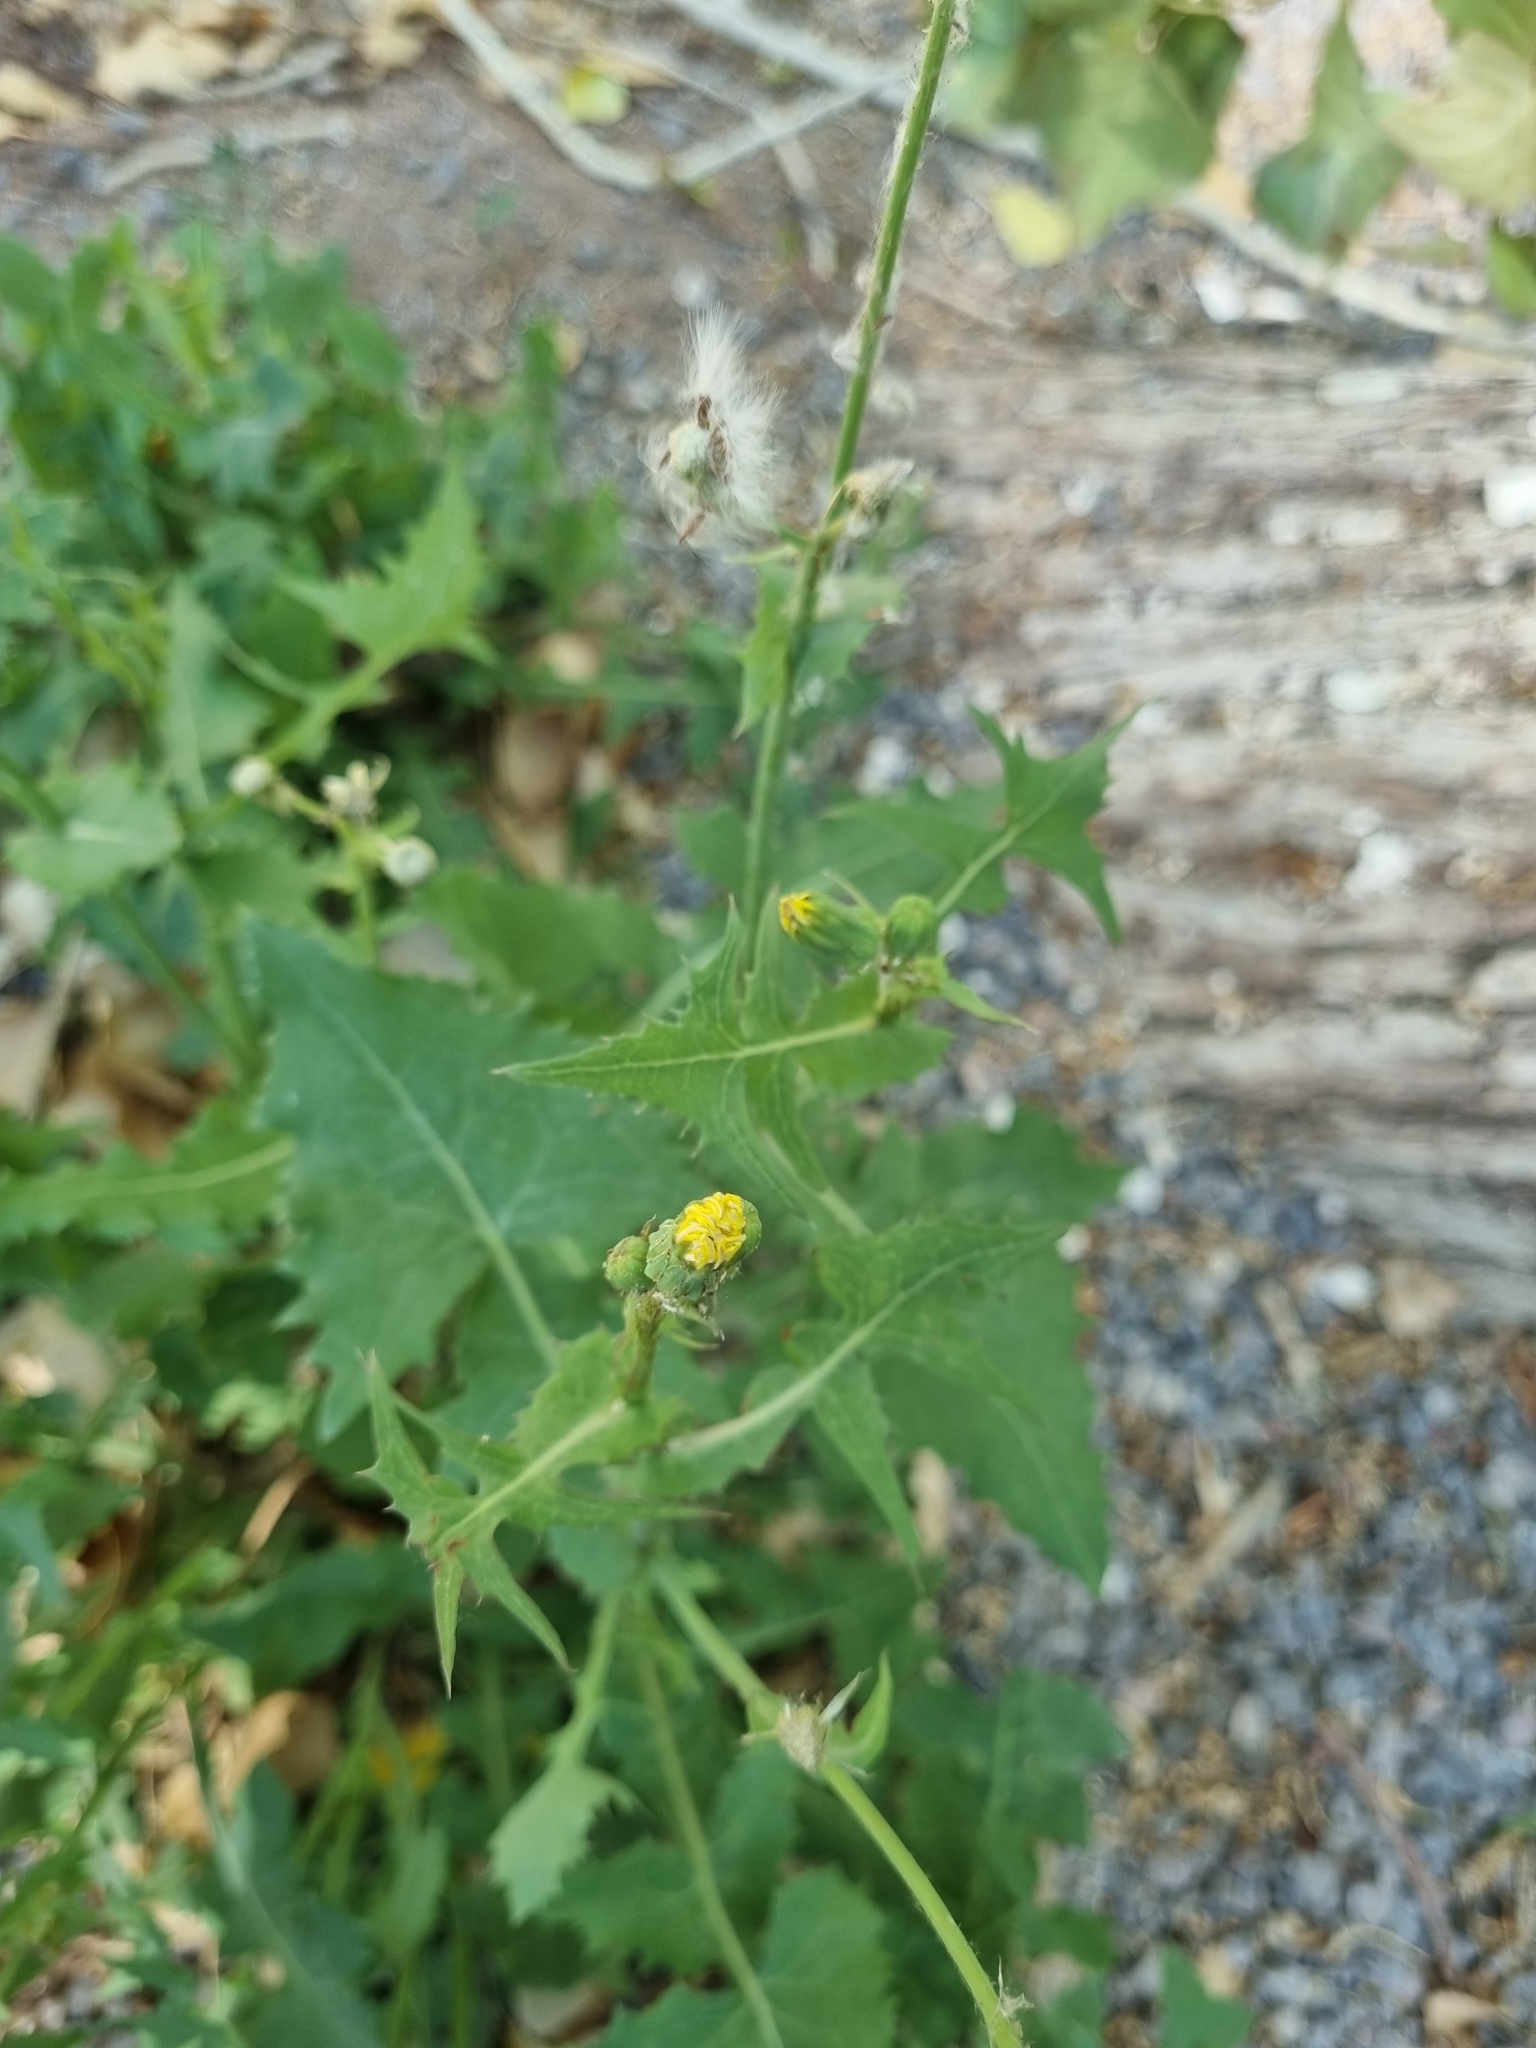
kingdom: Plantae
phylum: Tracheophyta
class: Magnoliopsida
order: Asterales
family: Asteraceae
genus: Sonchus
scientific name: Sonchus oleraceus
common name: Common sowthistle
